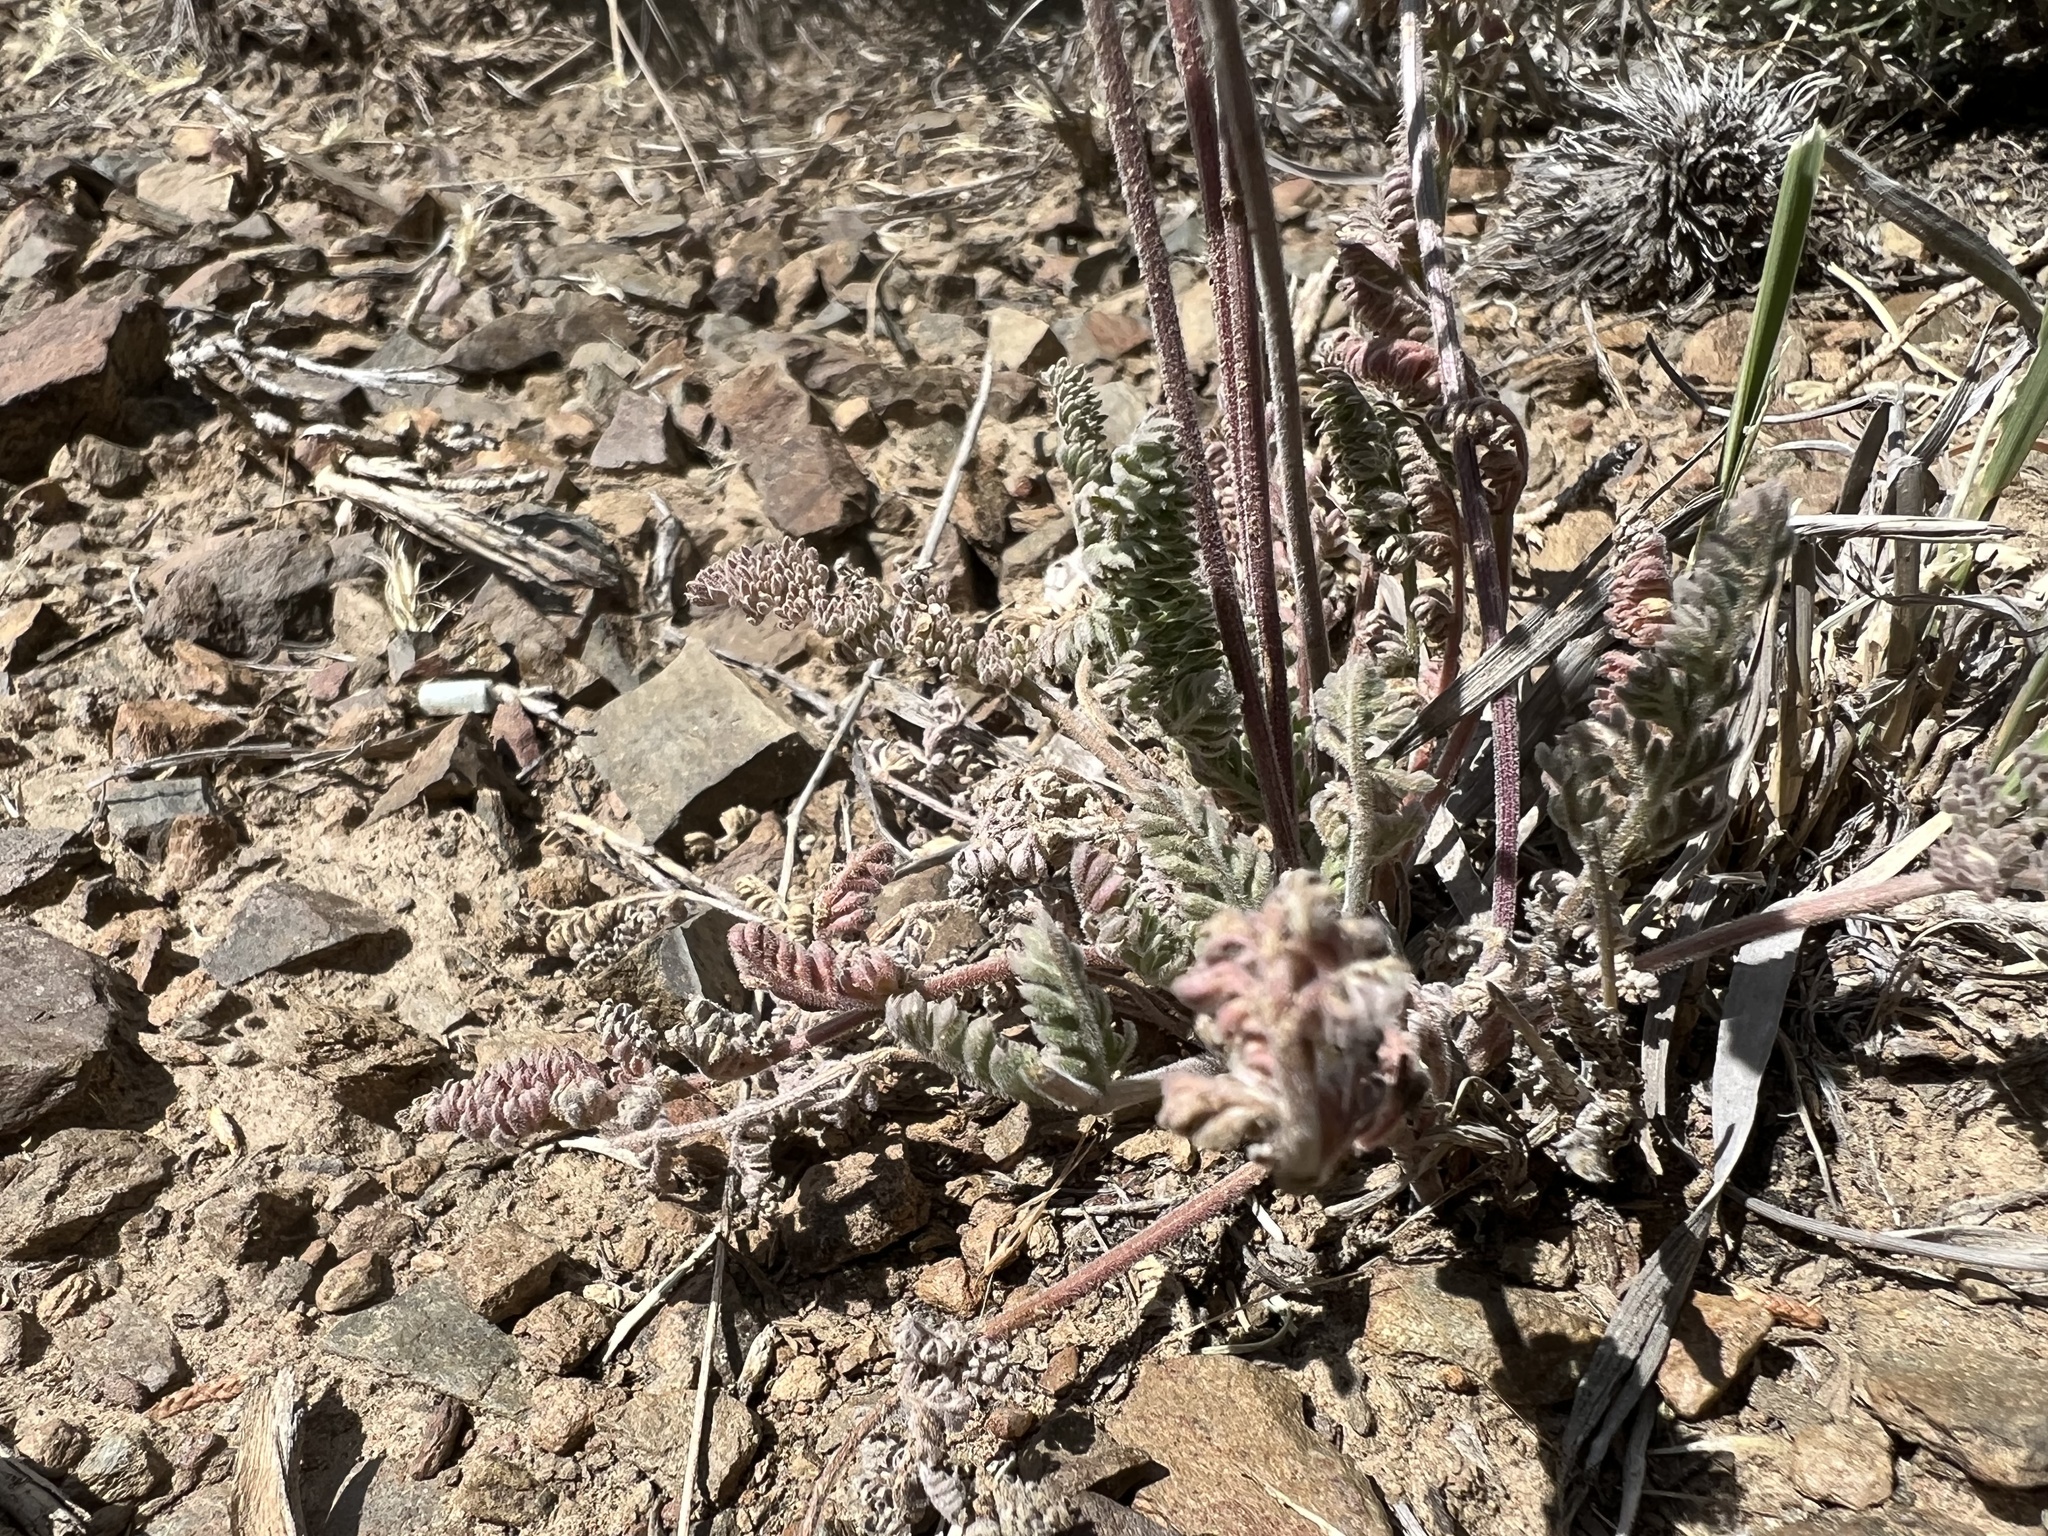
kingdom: Plantae
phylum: Tracheophyta
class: Magnoliopsida
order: Apiales
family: Apiaceae
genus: Lomatium
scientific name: Lomatium foeniculaceum
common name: Desert-parsley
